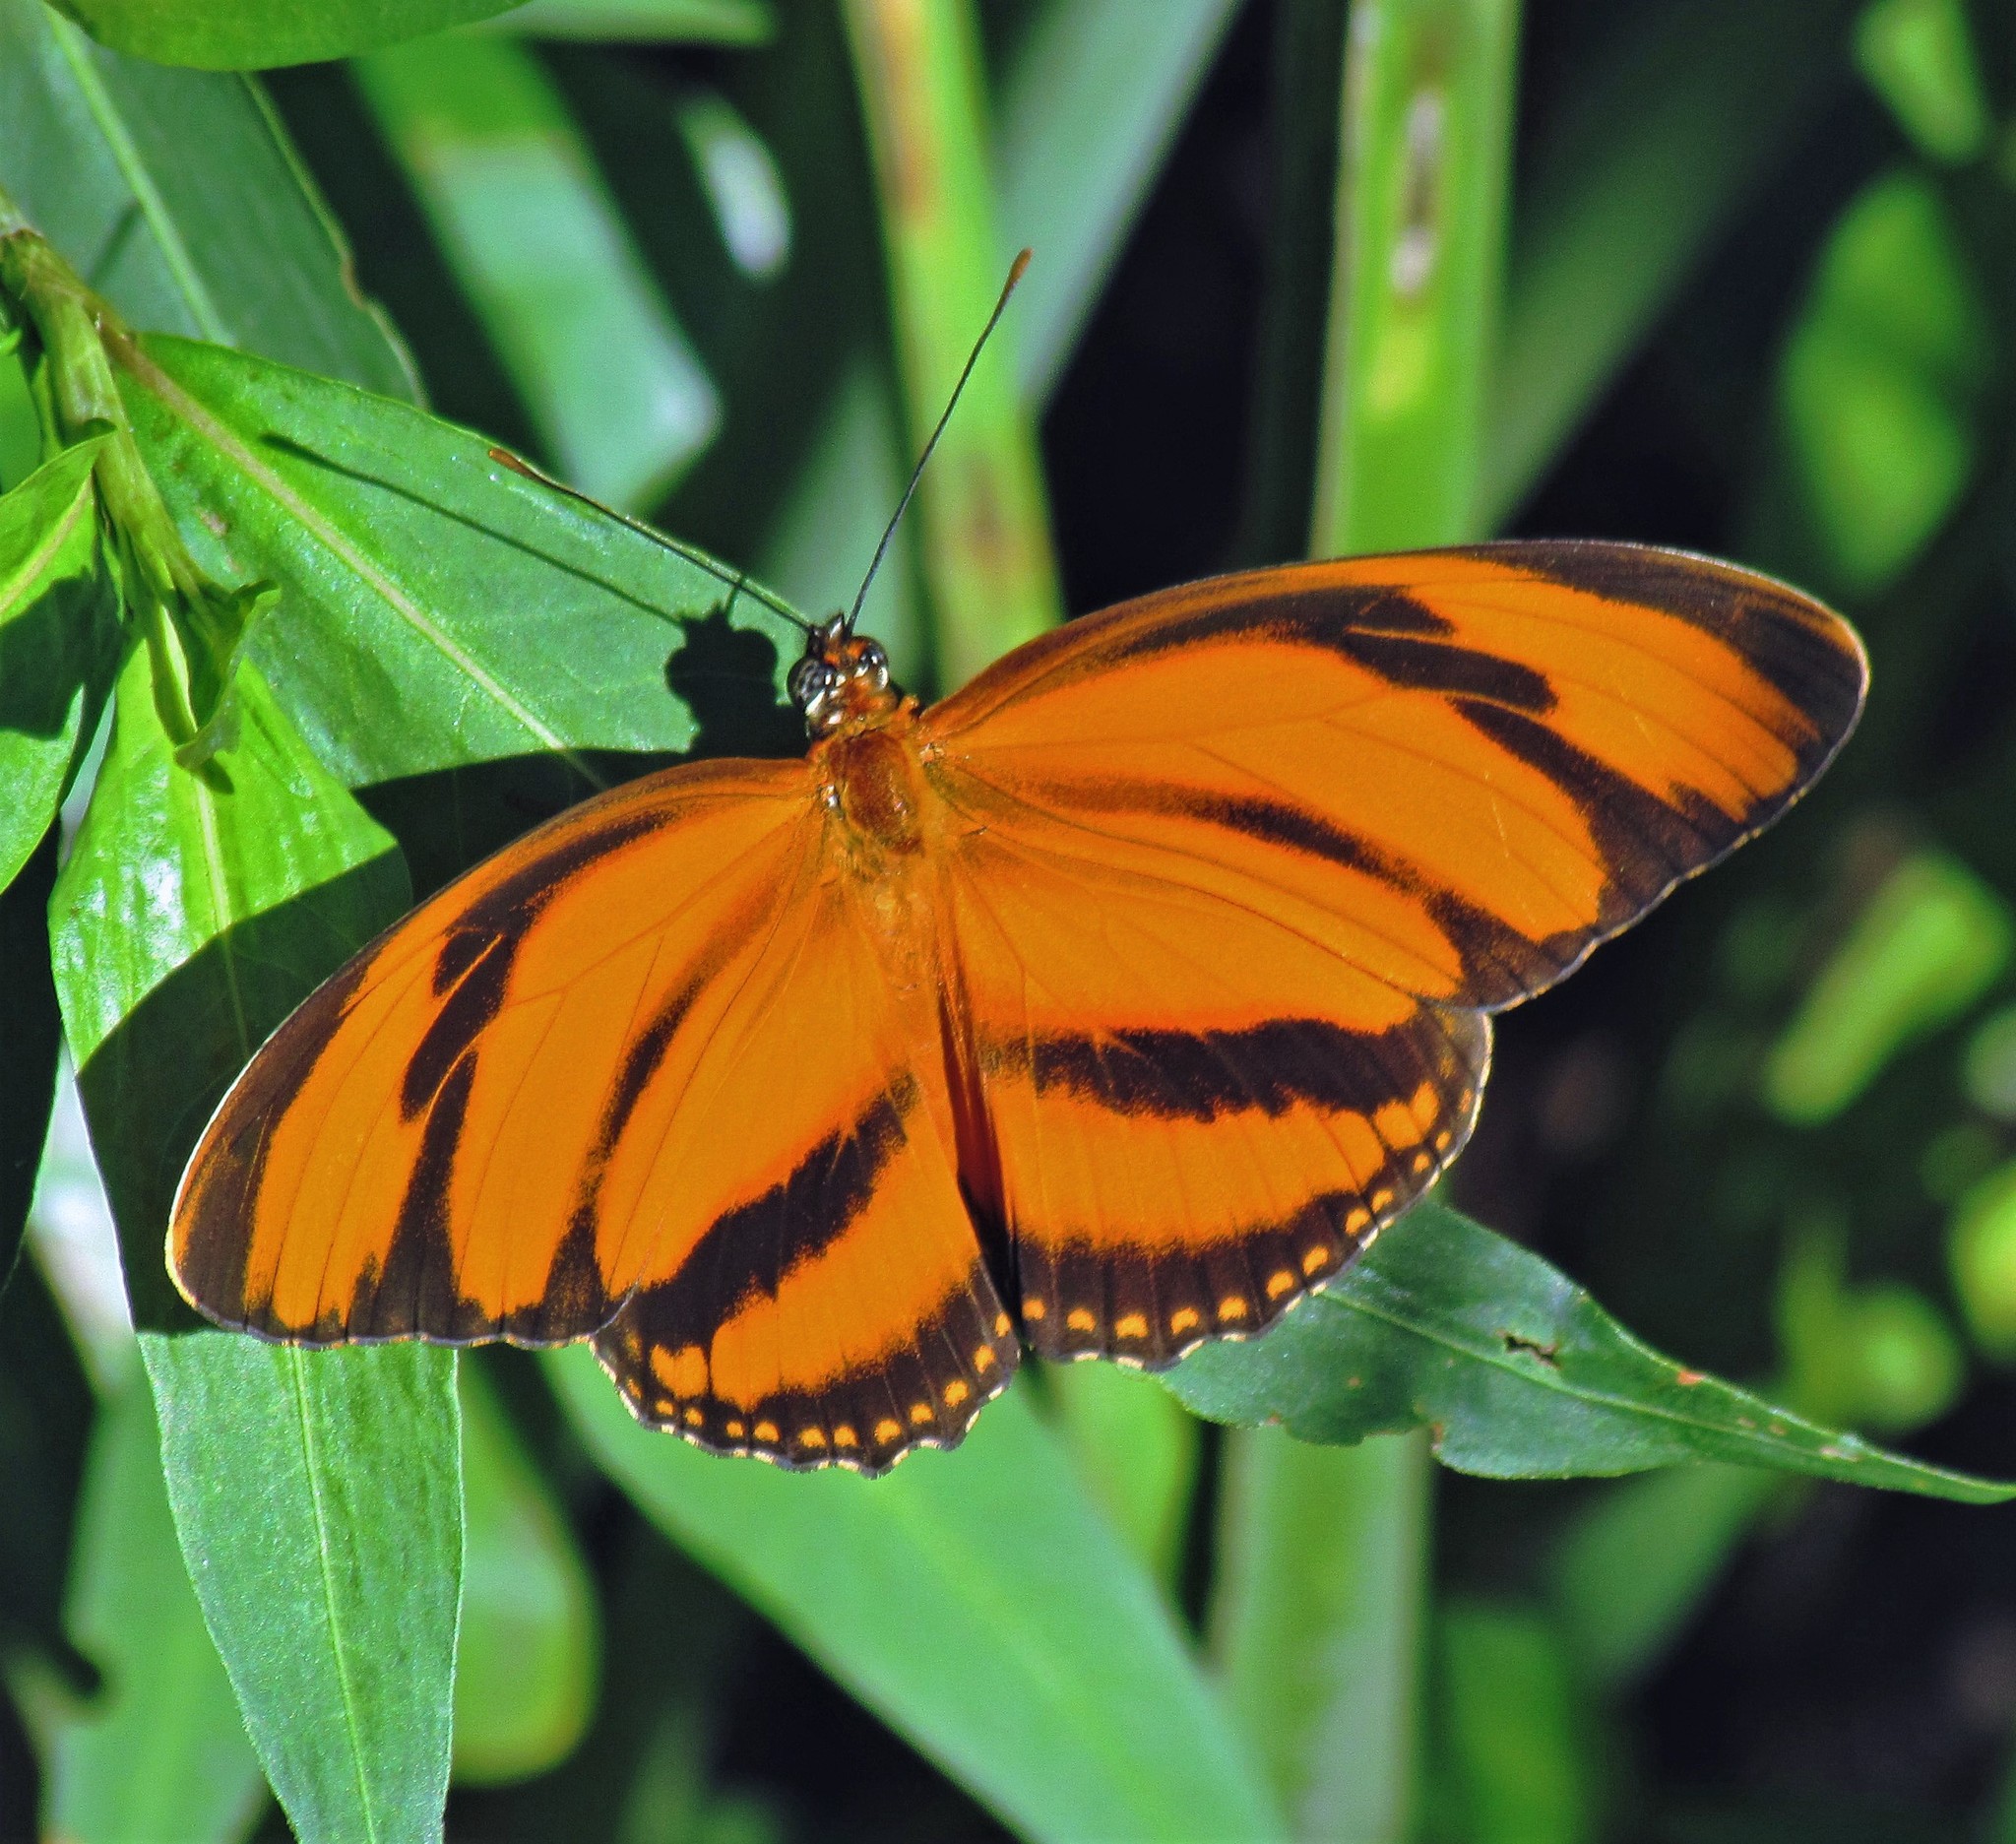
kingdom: Animalia
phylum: Arthropoda
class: Insecta
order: Lepidoptera
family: Nymphalidae
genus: Dryadula
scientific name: Dryadula phaetusa
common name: Banded orange heliconian
